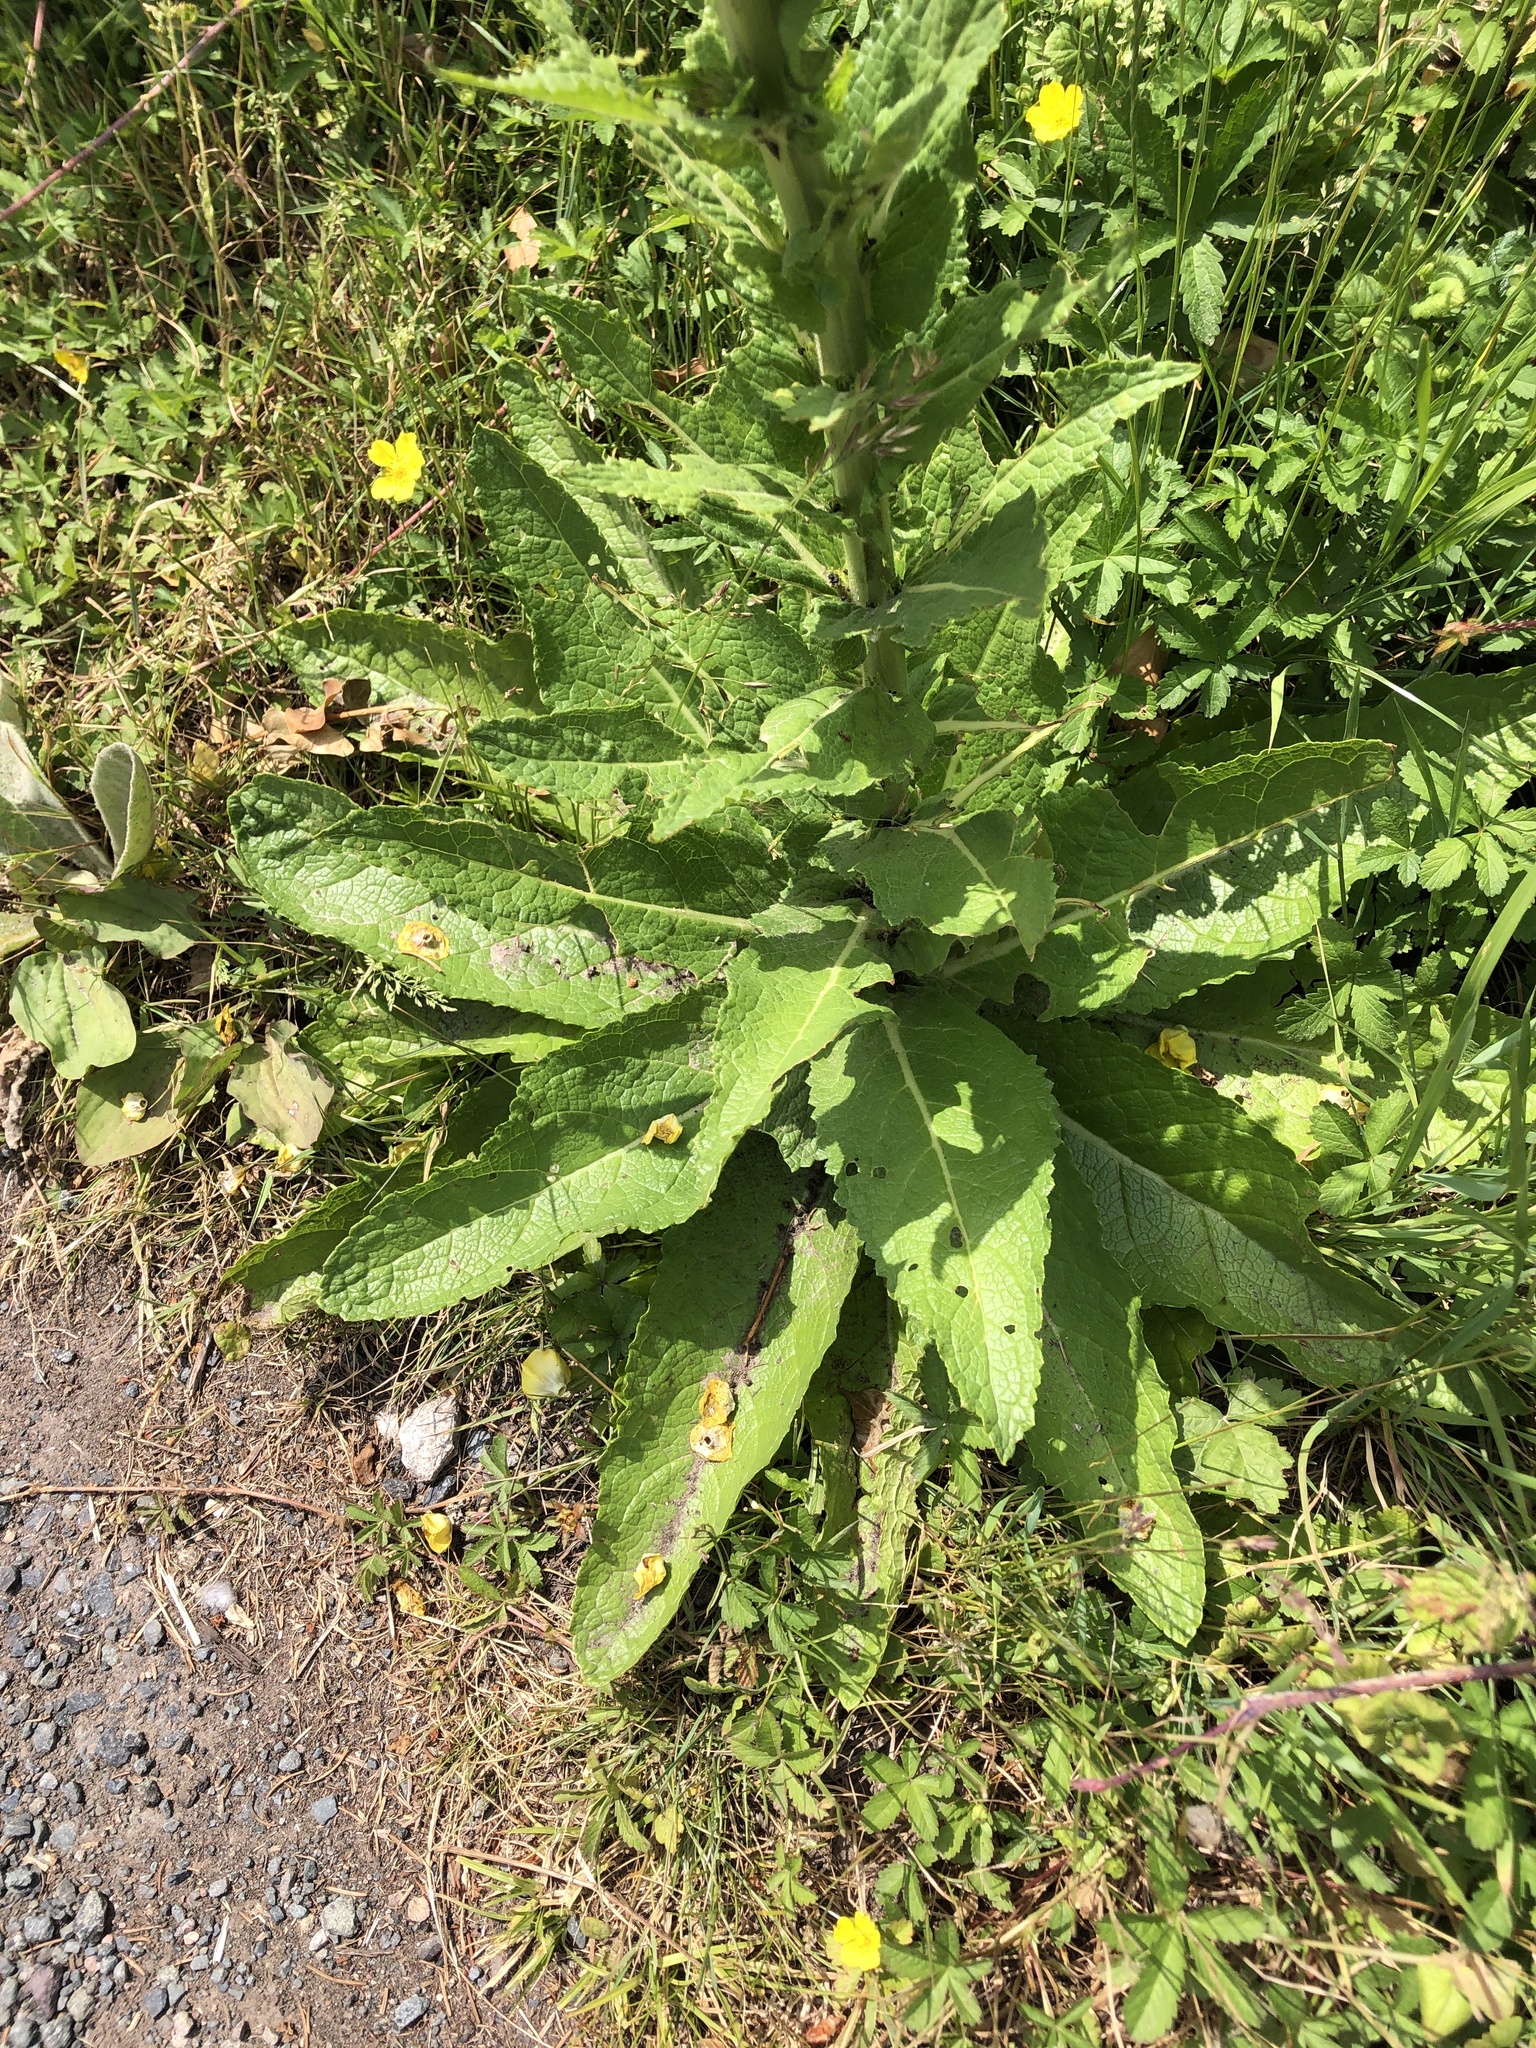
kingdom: Plantae
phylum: Tracheophyta
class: Magnoliopsida
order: Lamiales
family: Scrophulariaceae
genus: Verbascum
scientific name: Verbascum virgatum
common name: Twiggy mullein
